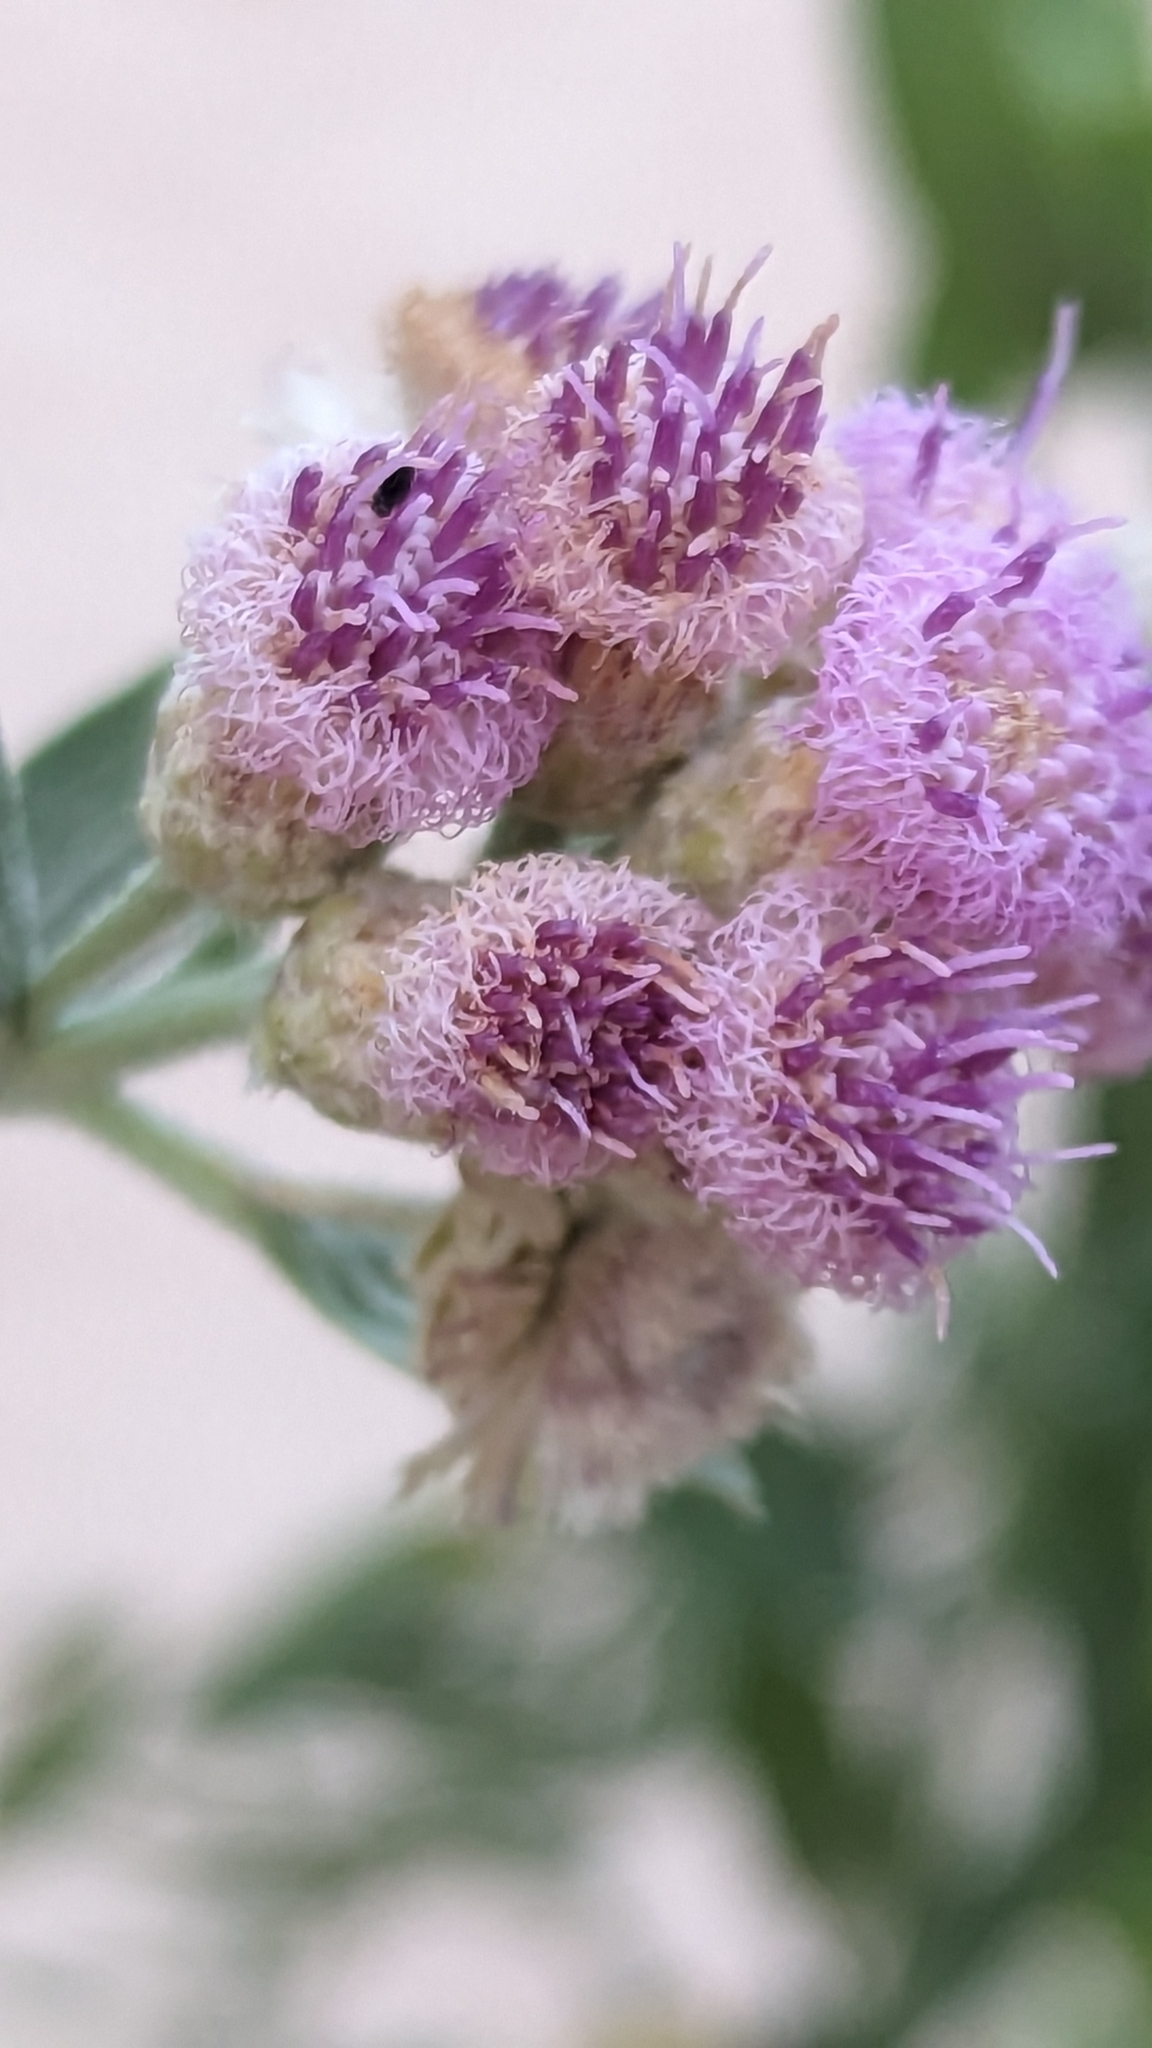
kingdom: Plantae
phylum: Tracheophyta
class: Magnoliopsida
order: Asterales
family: Asteraceae
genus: Pluchea
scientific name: Pluchea sericea
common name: Arrow-weed
